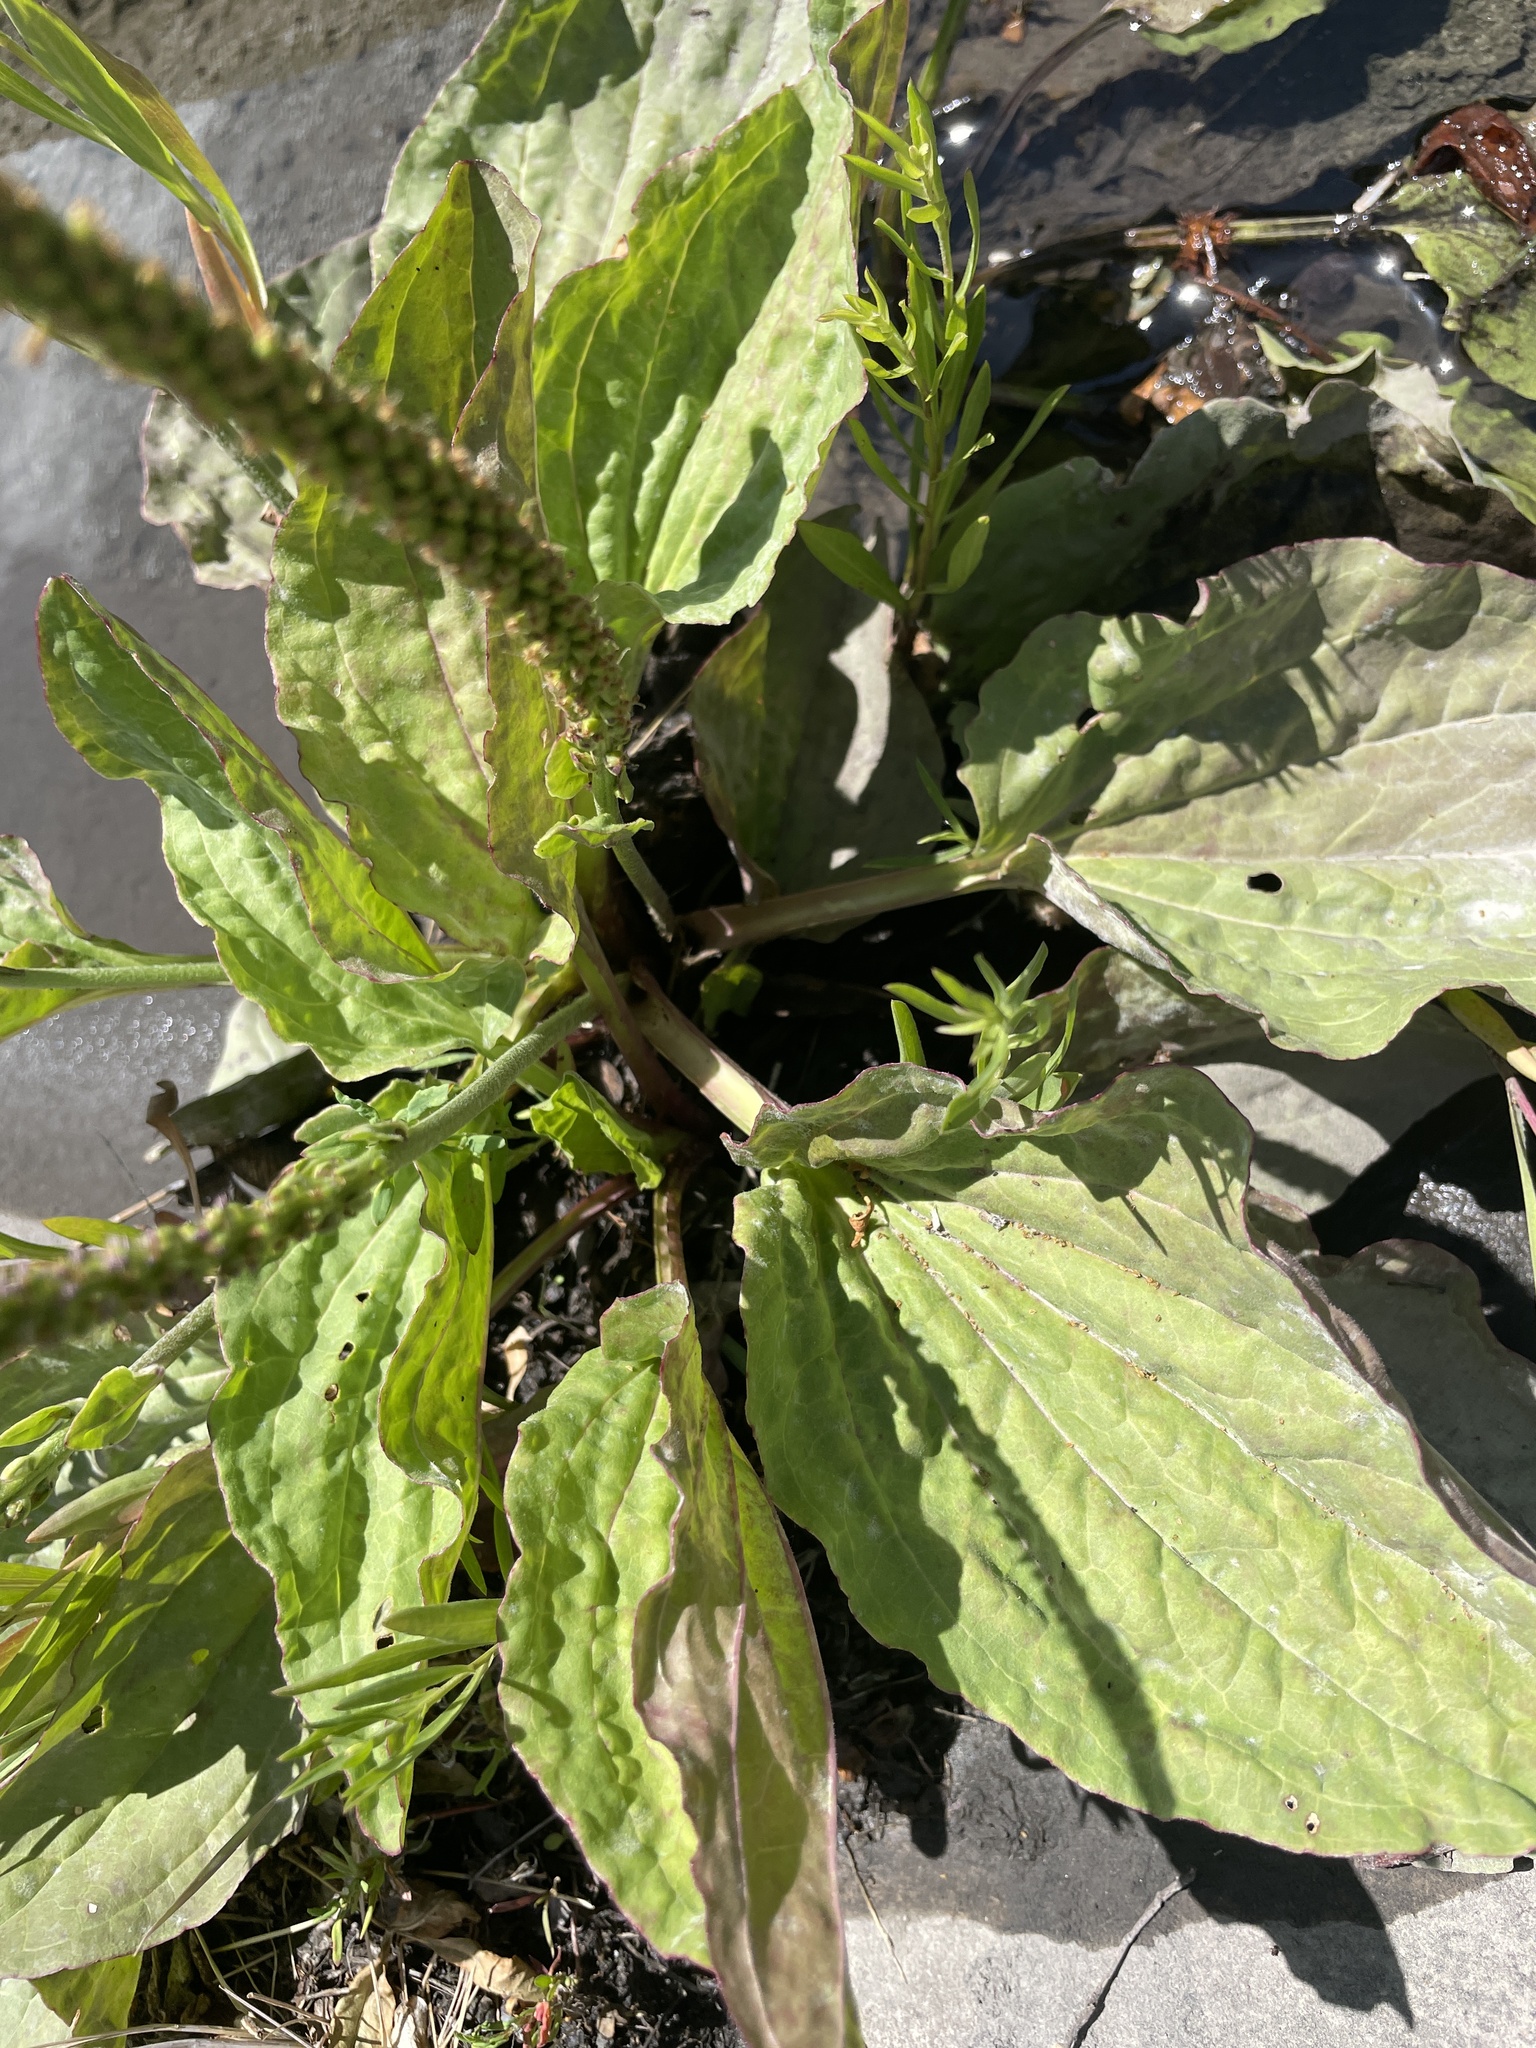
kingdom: Plantae
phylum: Tracheophyta
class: Magnoliopsida
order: Lamiales
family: Plantaginaceae
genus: Plantago
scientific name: Plantago major
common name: Common plantain
